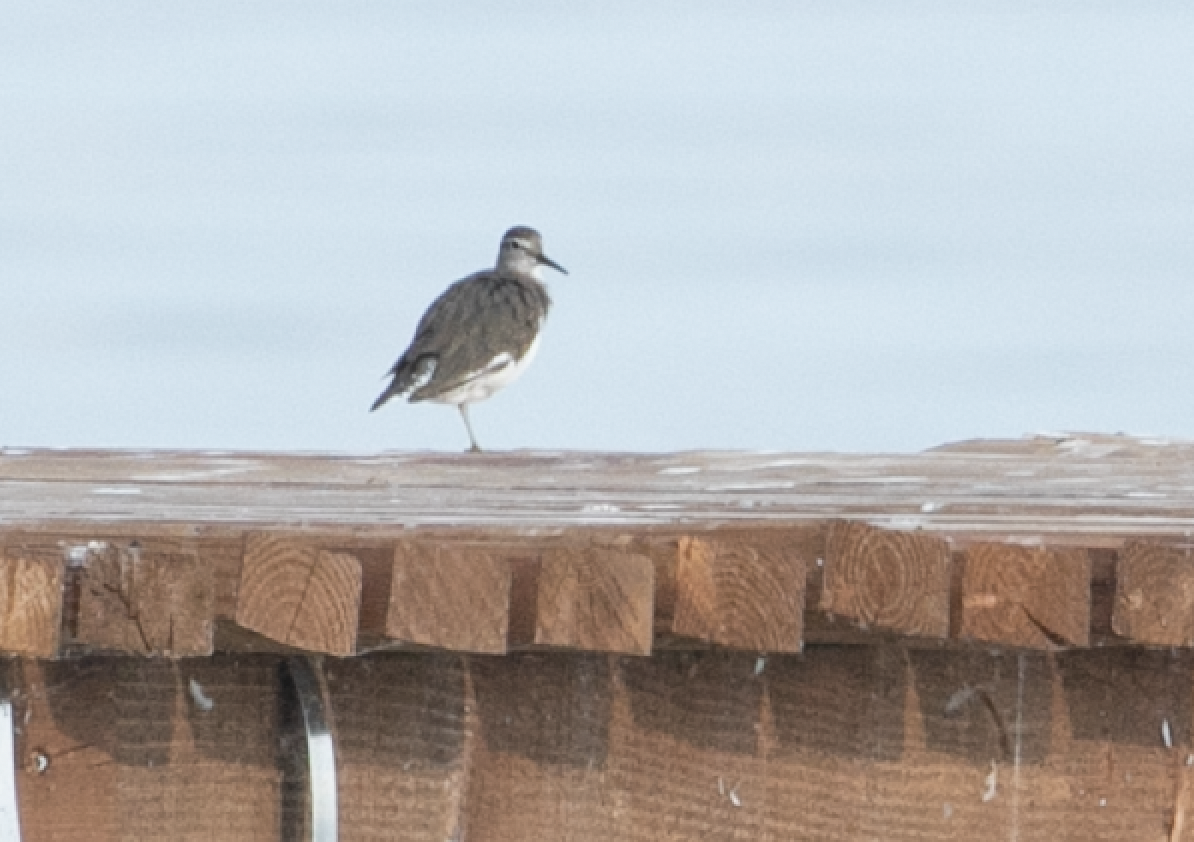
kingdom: Animalia
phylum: Chordata
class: Aves
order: Charadriiformes
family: Scolopacidae
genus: Actitis
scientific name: Actitis hypoleucos
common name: Common sandpiper
